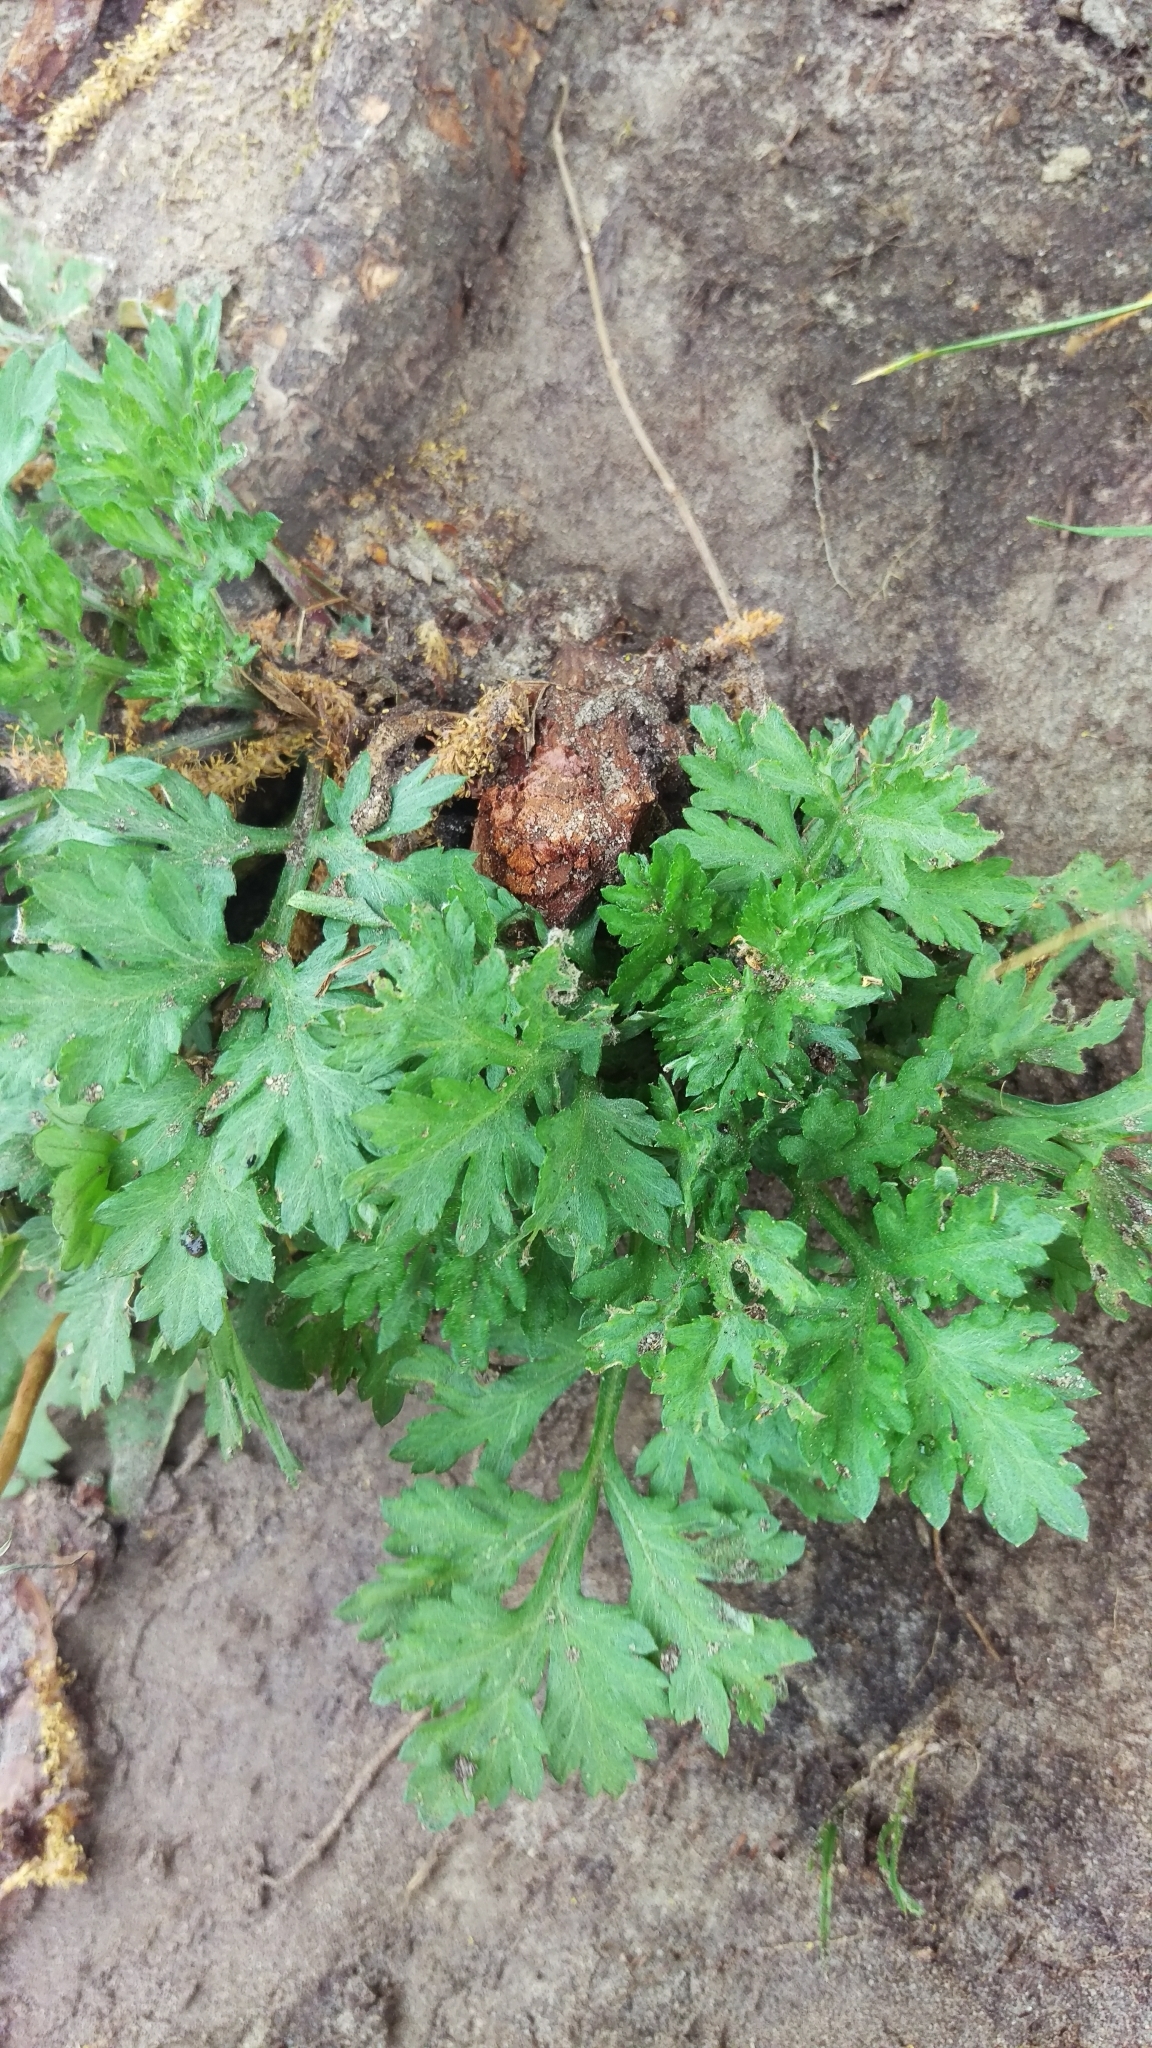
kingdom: Plantae
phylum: Tracheophyta
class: Magnoliopsida
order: Asterales
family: Asteraceae
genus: Artemisia
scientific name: Artemisia vulgaris
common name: Mugwort
